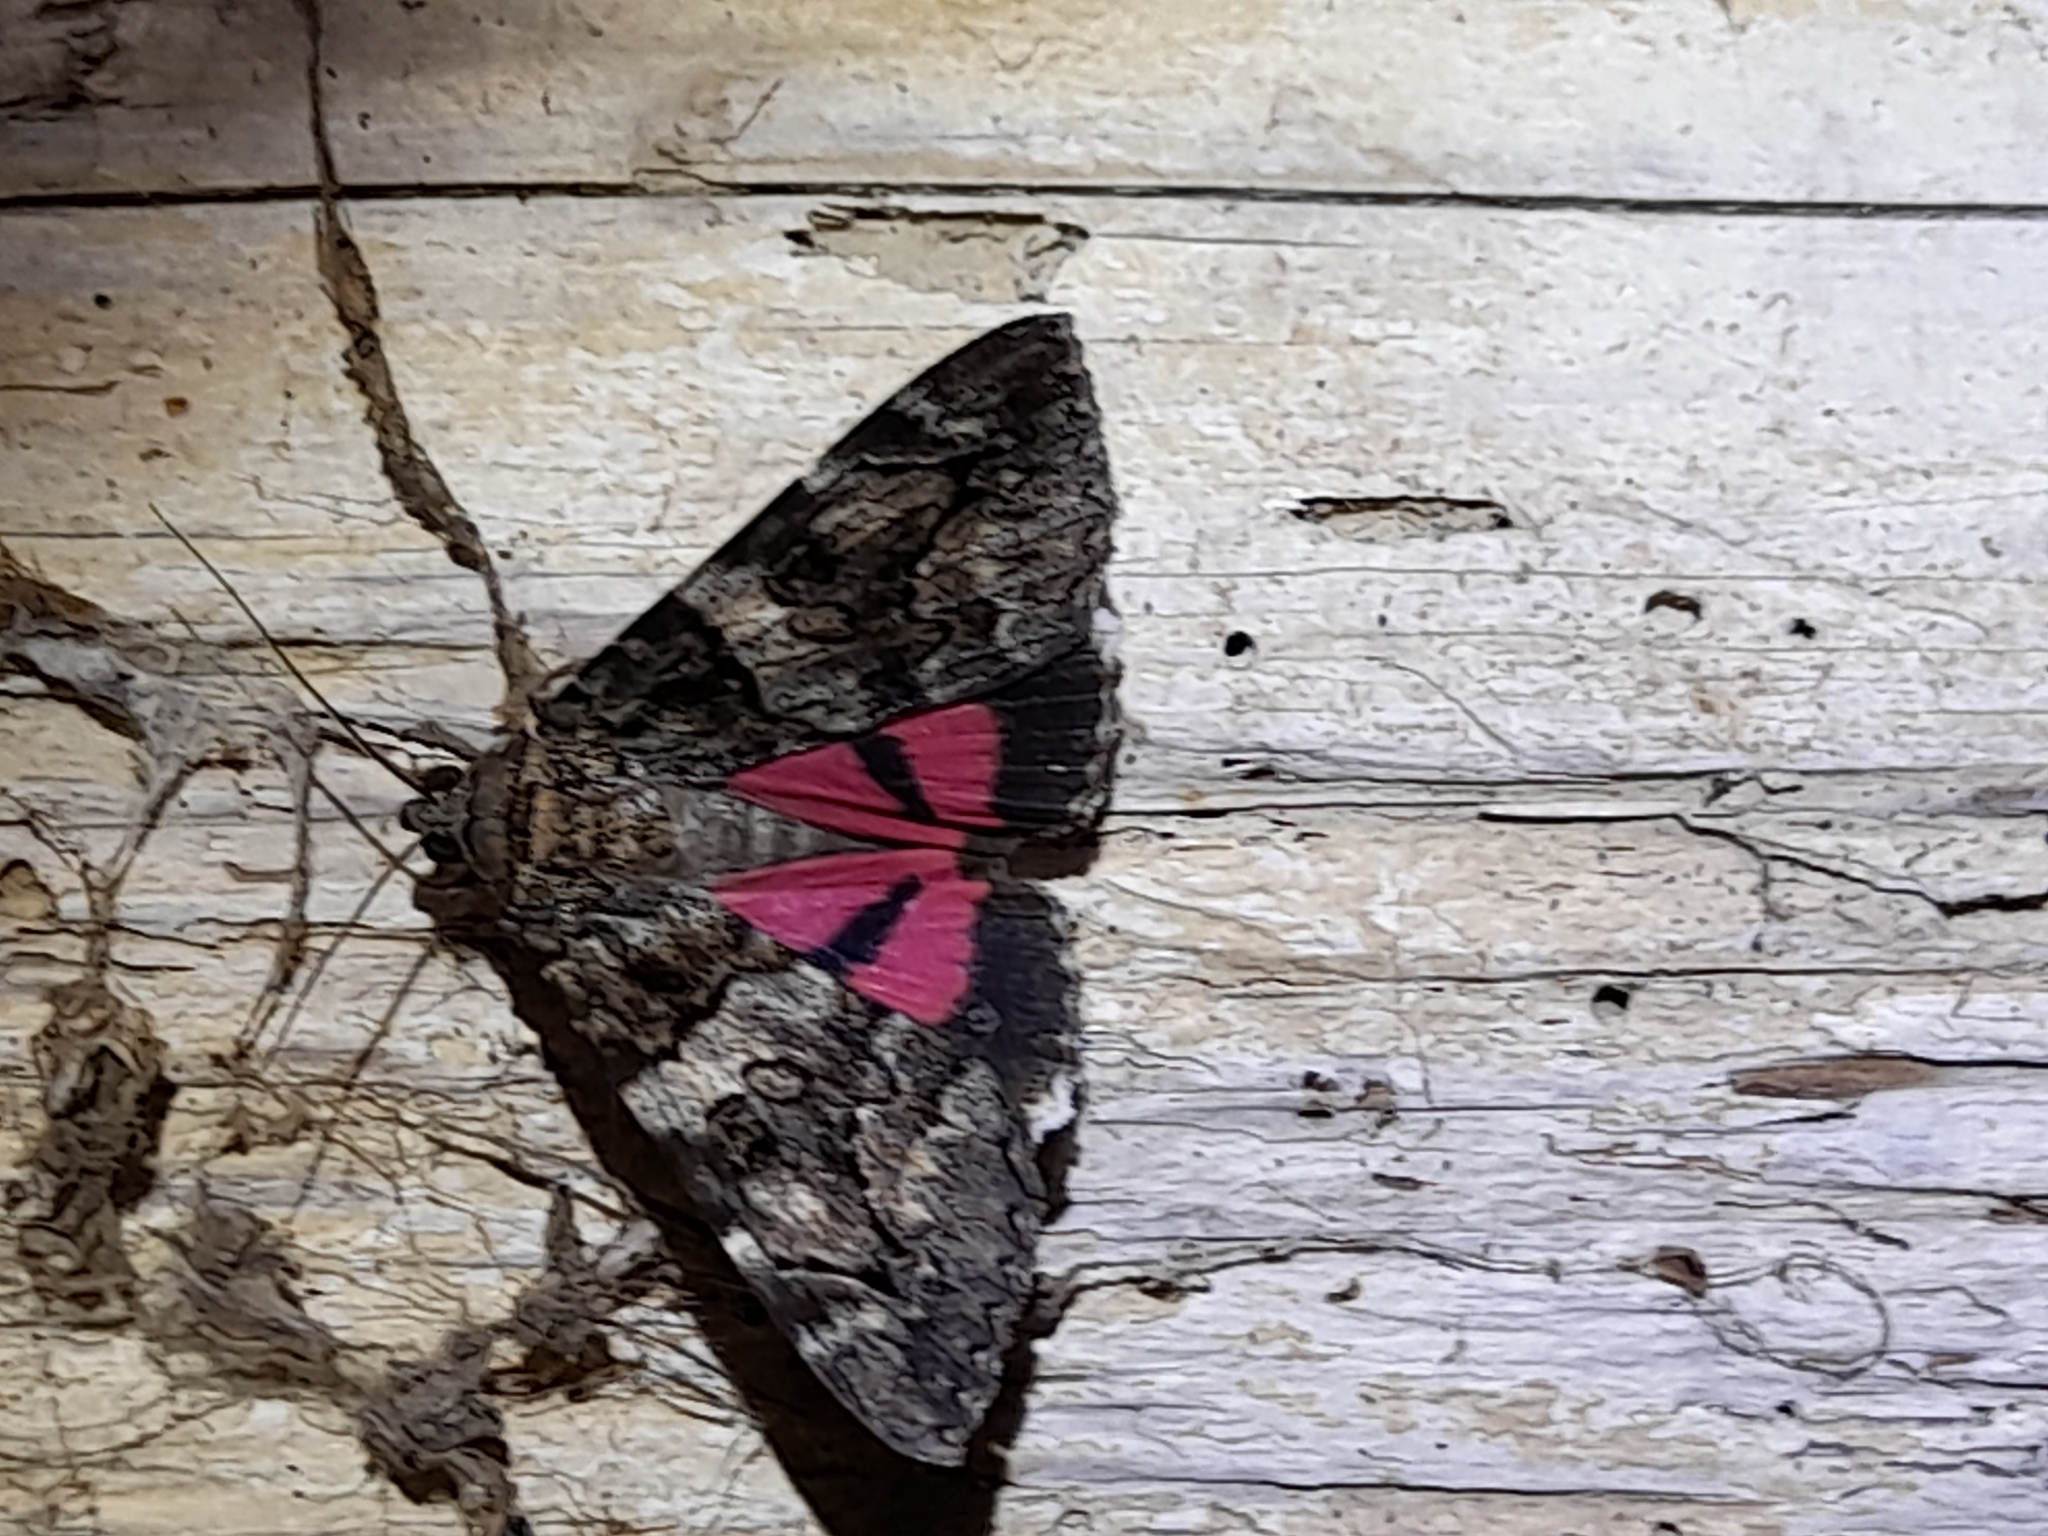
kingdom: Animalia
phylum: Arthropoda
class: Insecta
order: Lepidoptera
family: Erebidae
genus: Catocala
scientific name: Catocala coniuncta
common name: Minsmere crimson underwing
